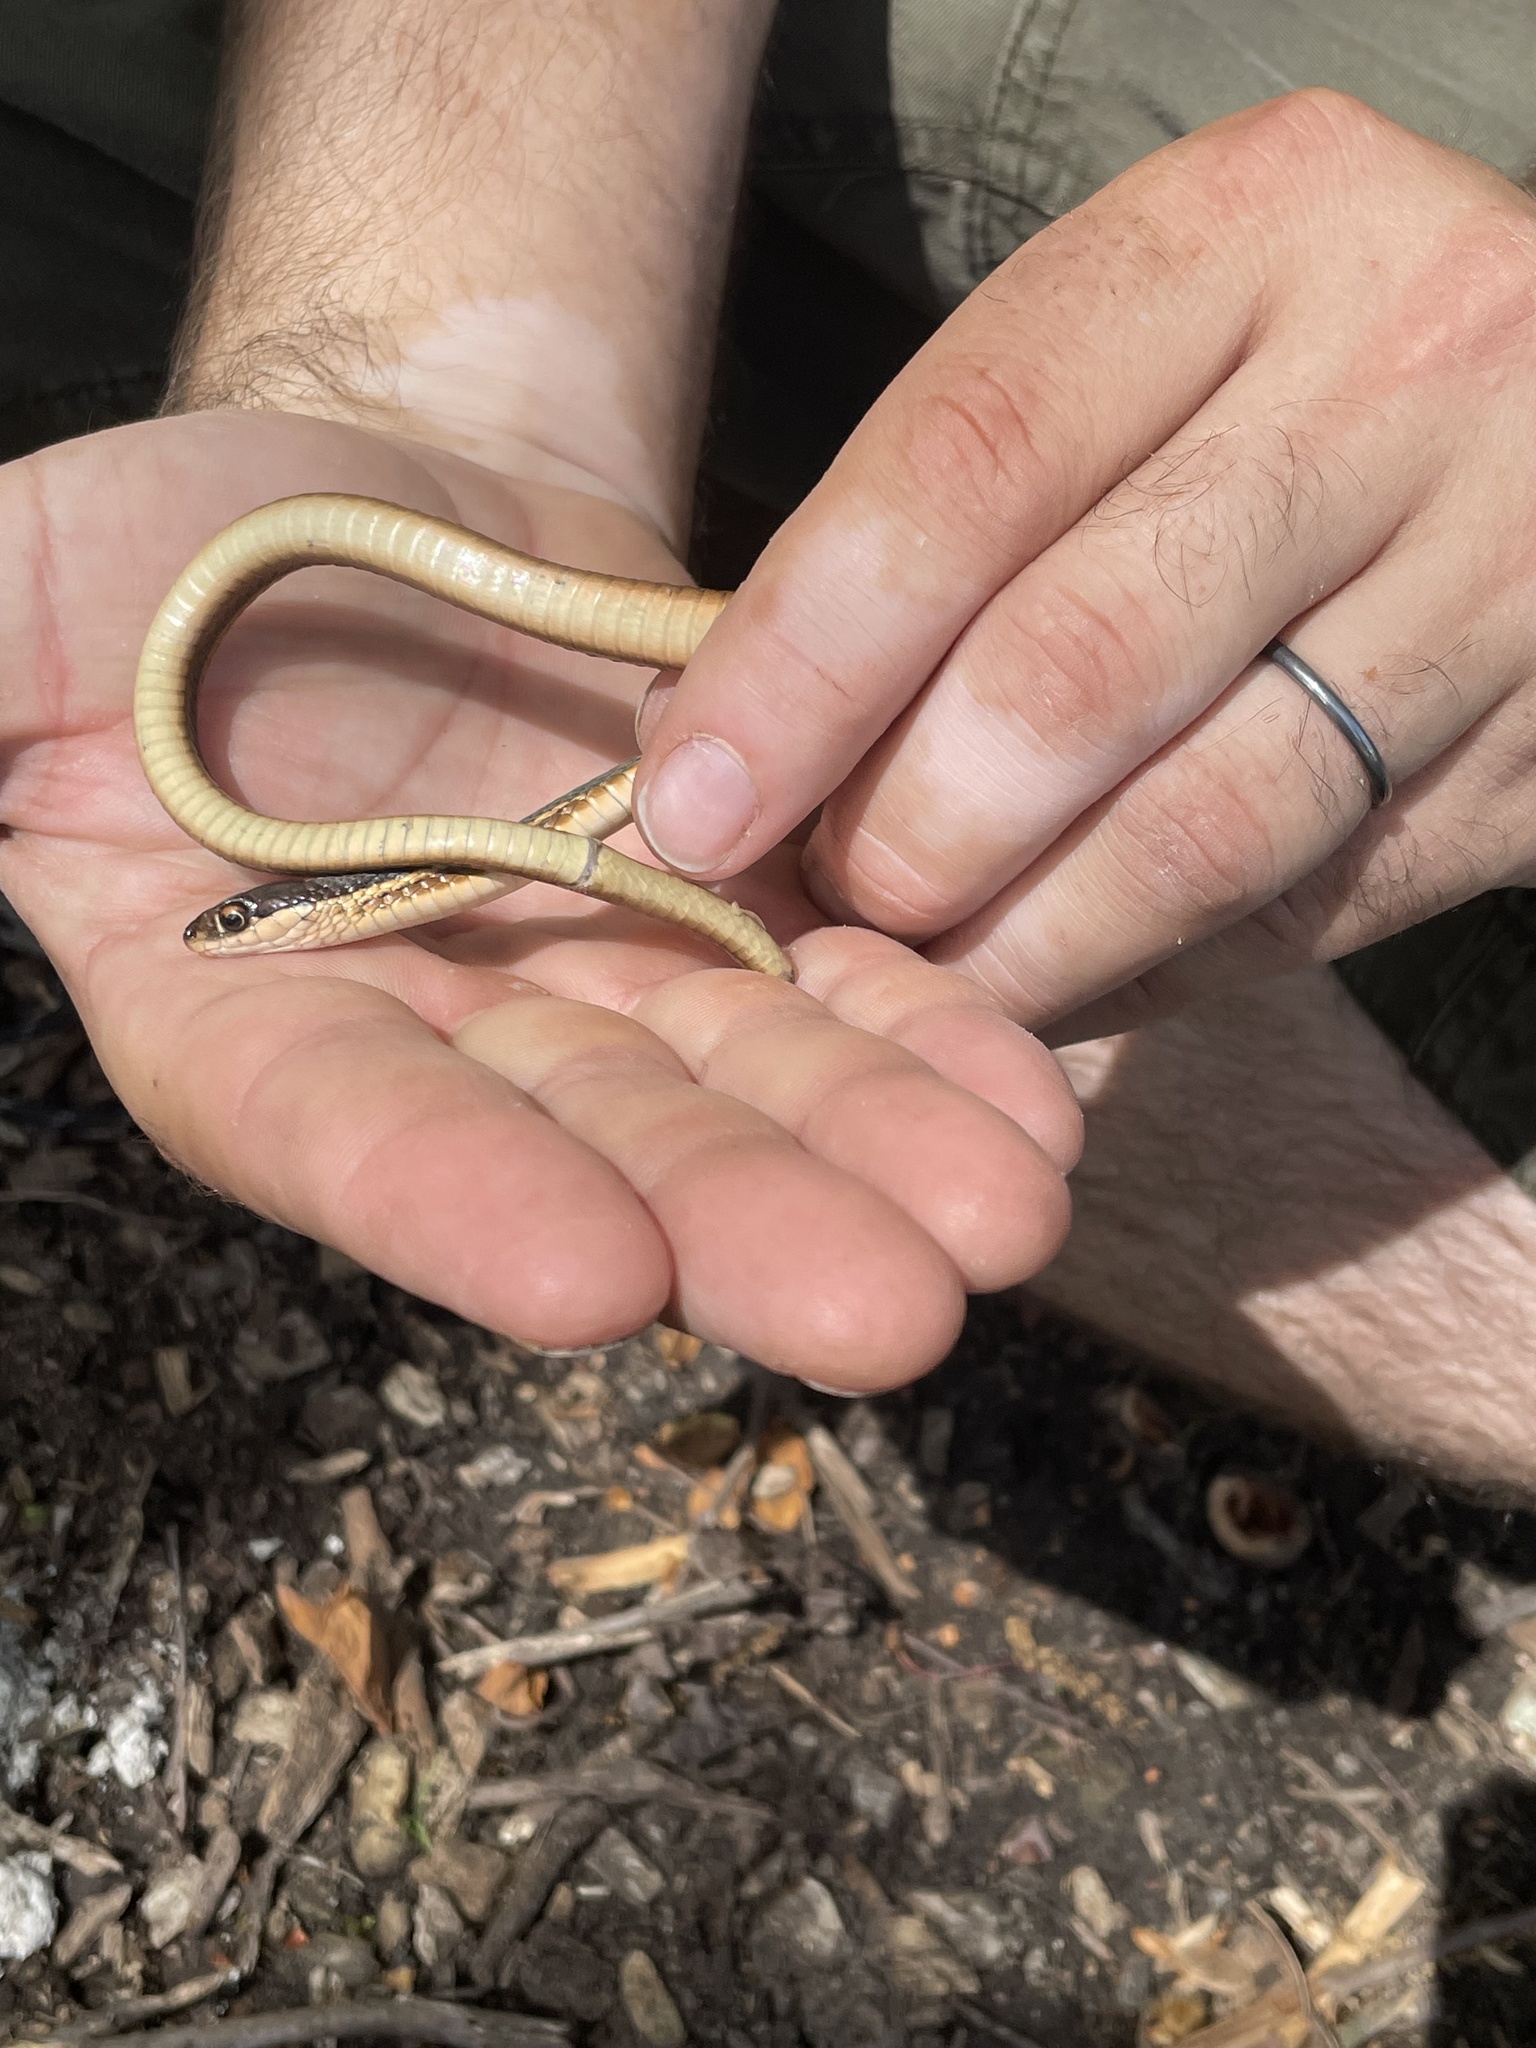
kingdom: Animalia
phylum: Chordata
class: Squamata
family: Colubridae
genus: Thamnophis
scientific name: Thamnophis saurita
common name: Eastern ribbonsnake
